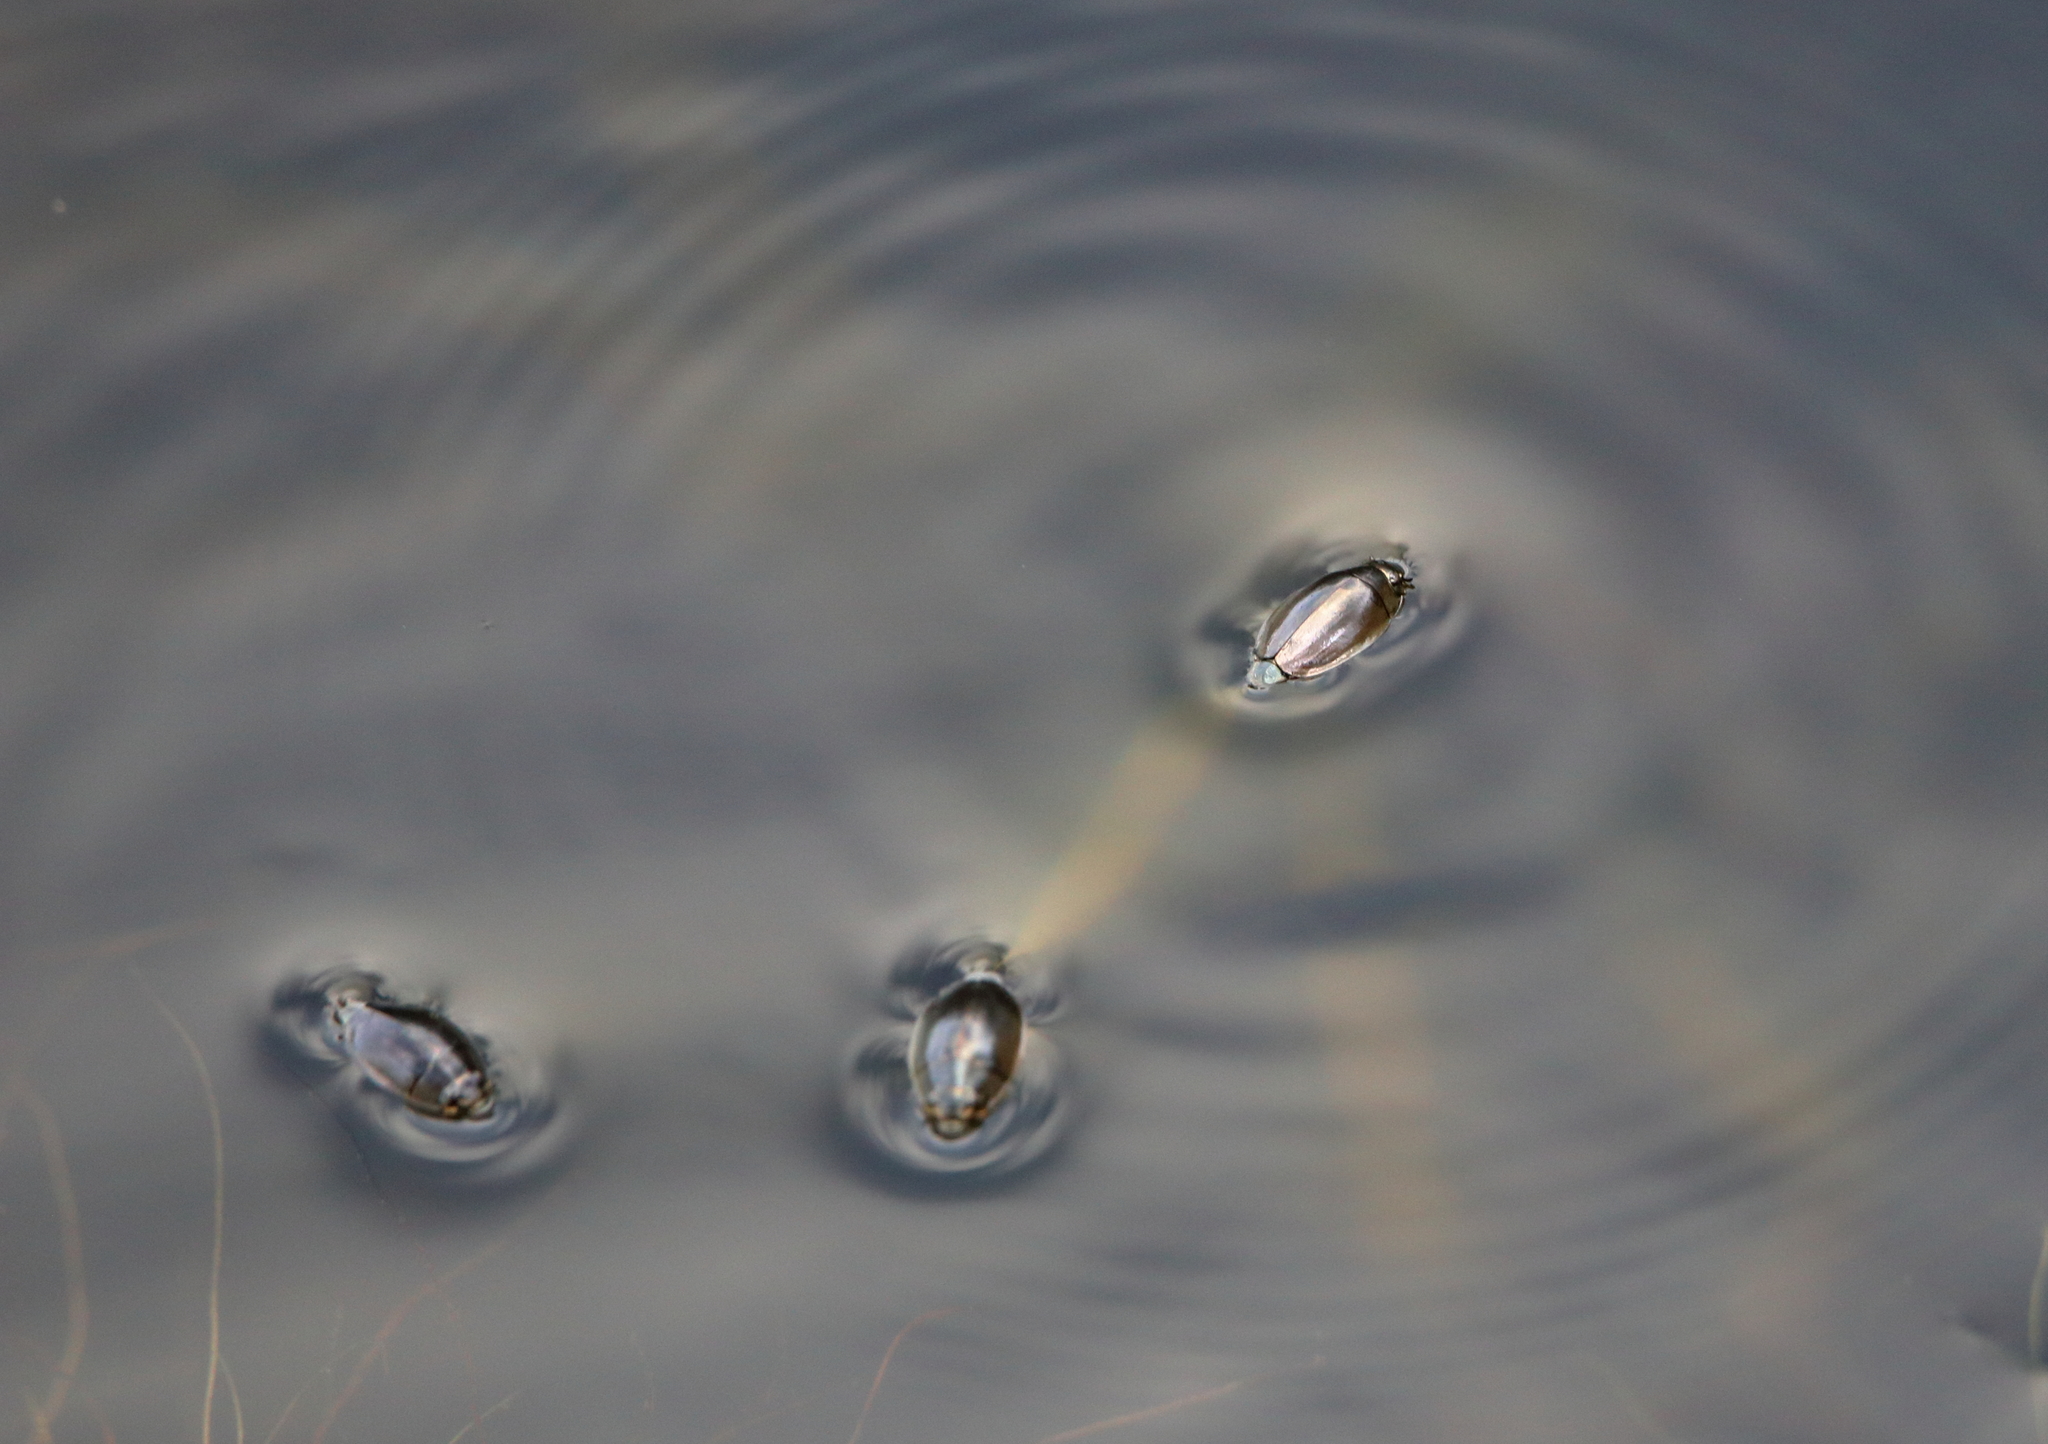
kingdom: Animalia
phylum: Arthropoda
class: Insecta
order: Coleoptera
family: Gyrinidae
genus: Dineutus
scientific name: Dineutus
